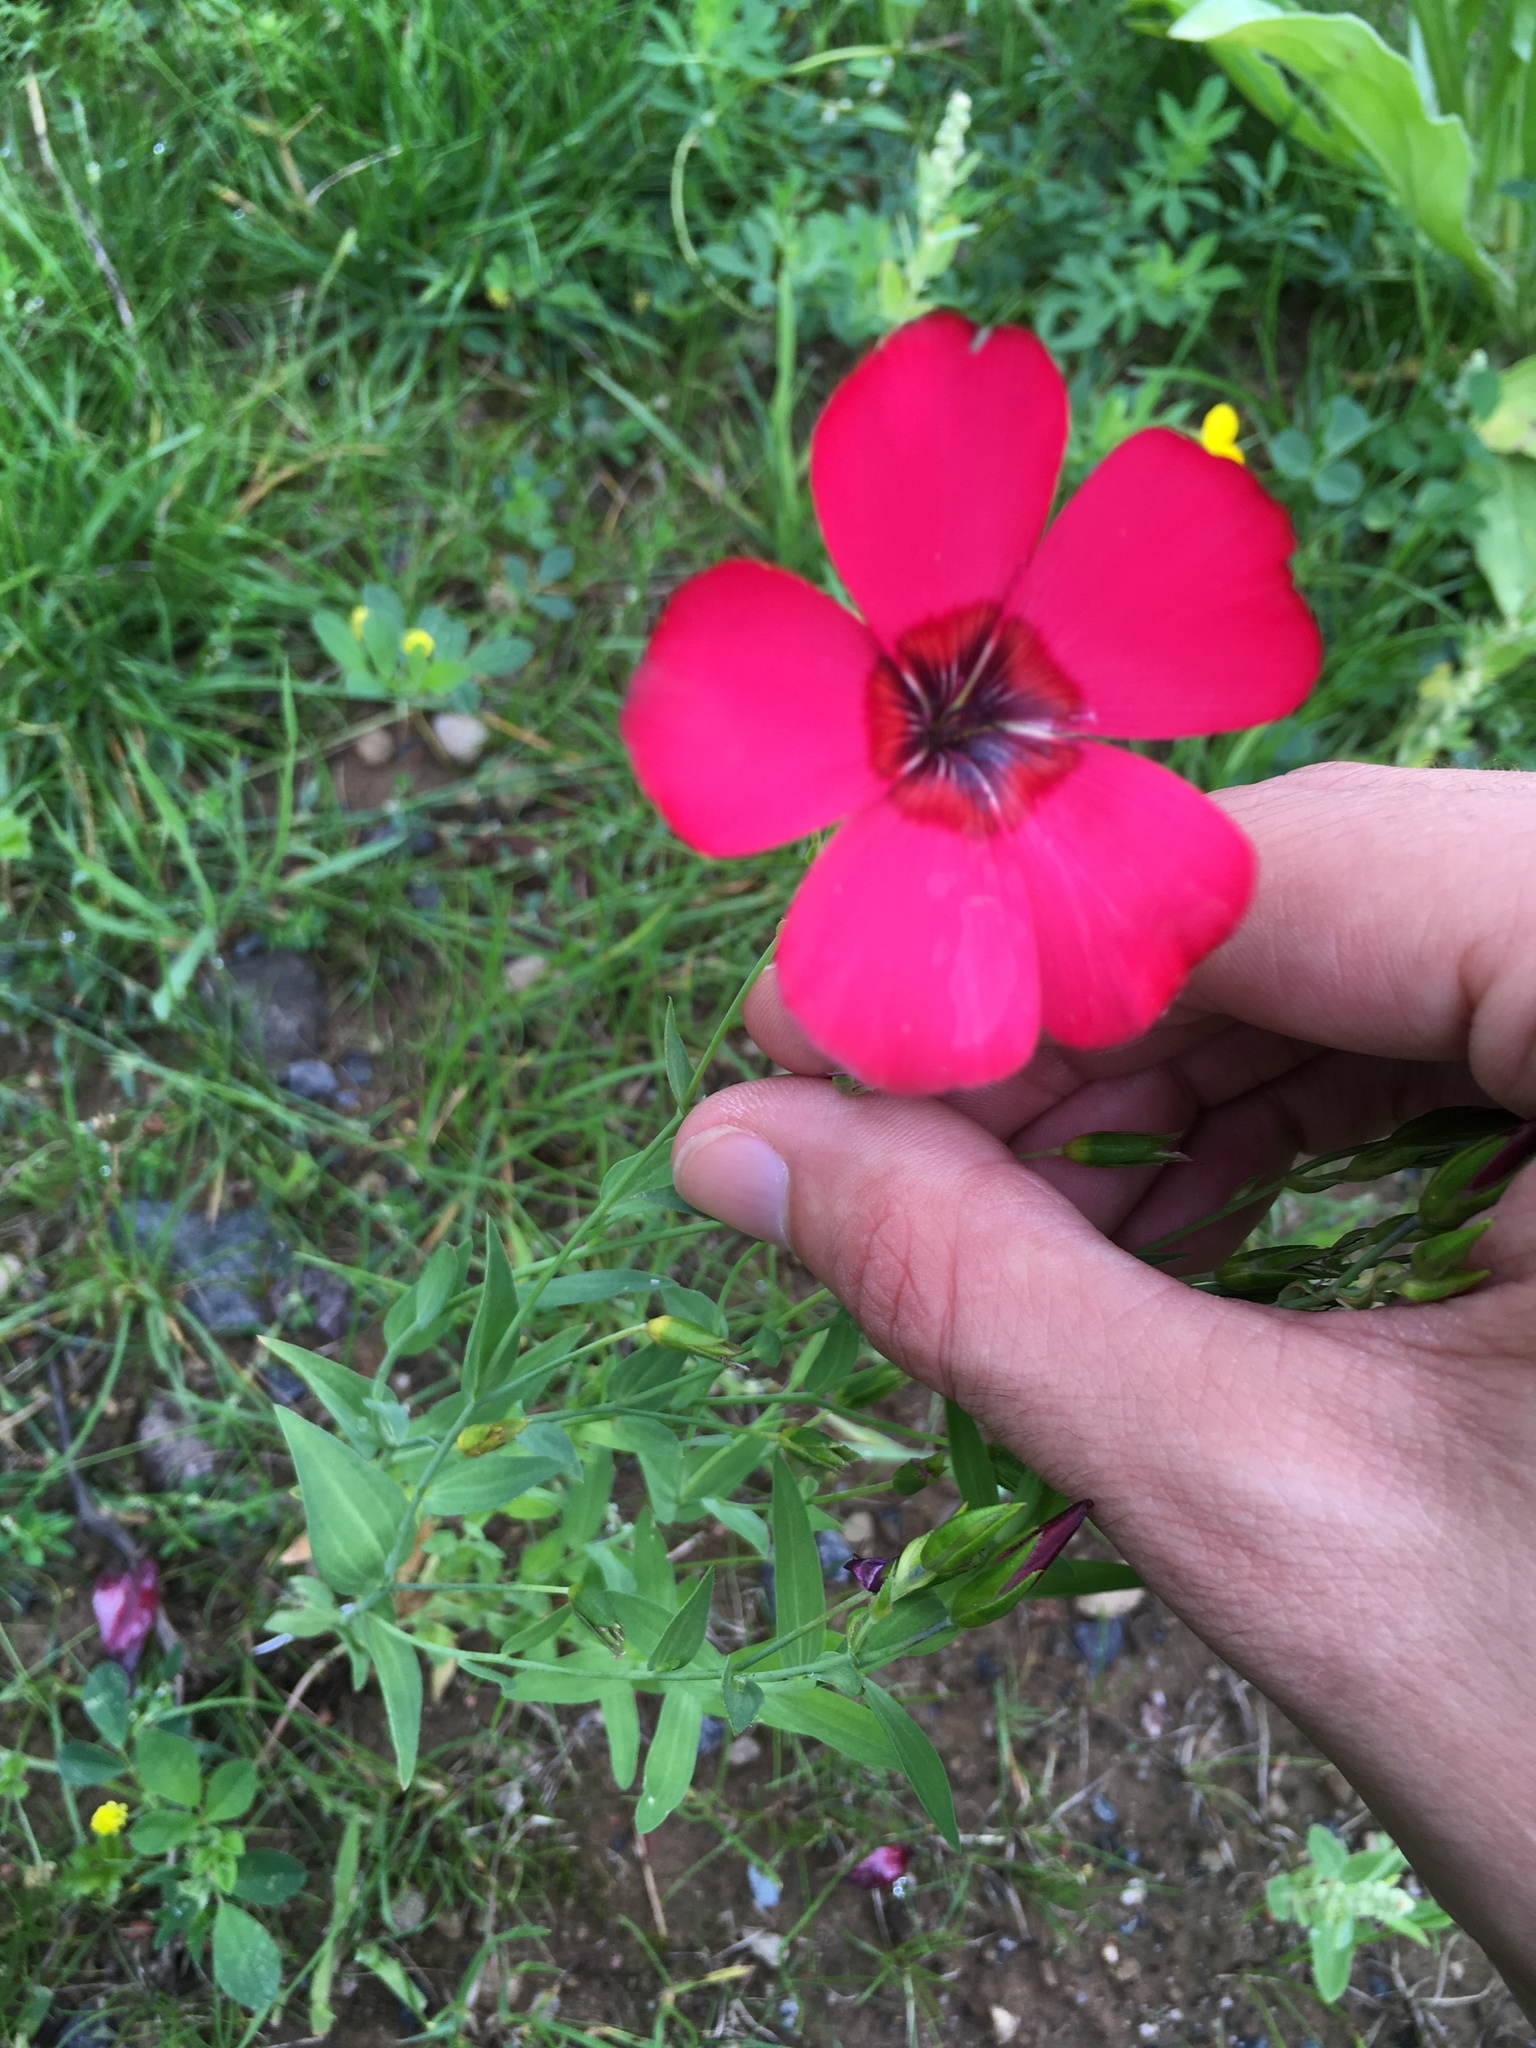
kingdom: Plantae
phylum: Tracheophyta
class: Magnoliopsida
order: Malpighiales
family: Linaceae
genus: Linum
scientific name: Linum grandiflorum
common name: Crimson flax
